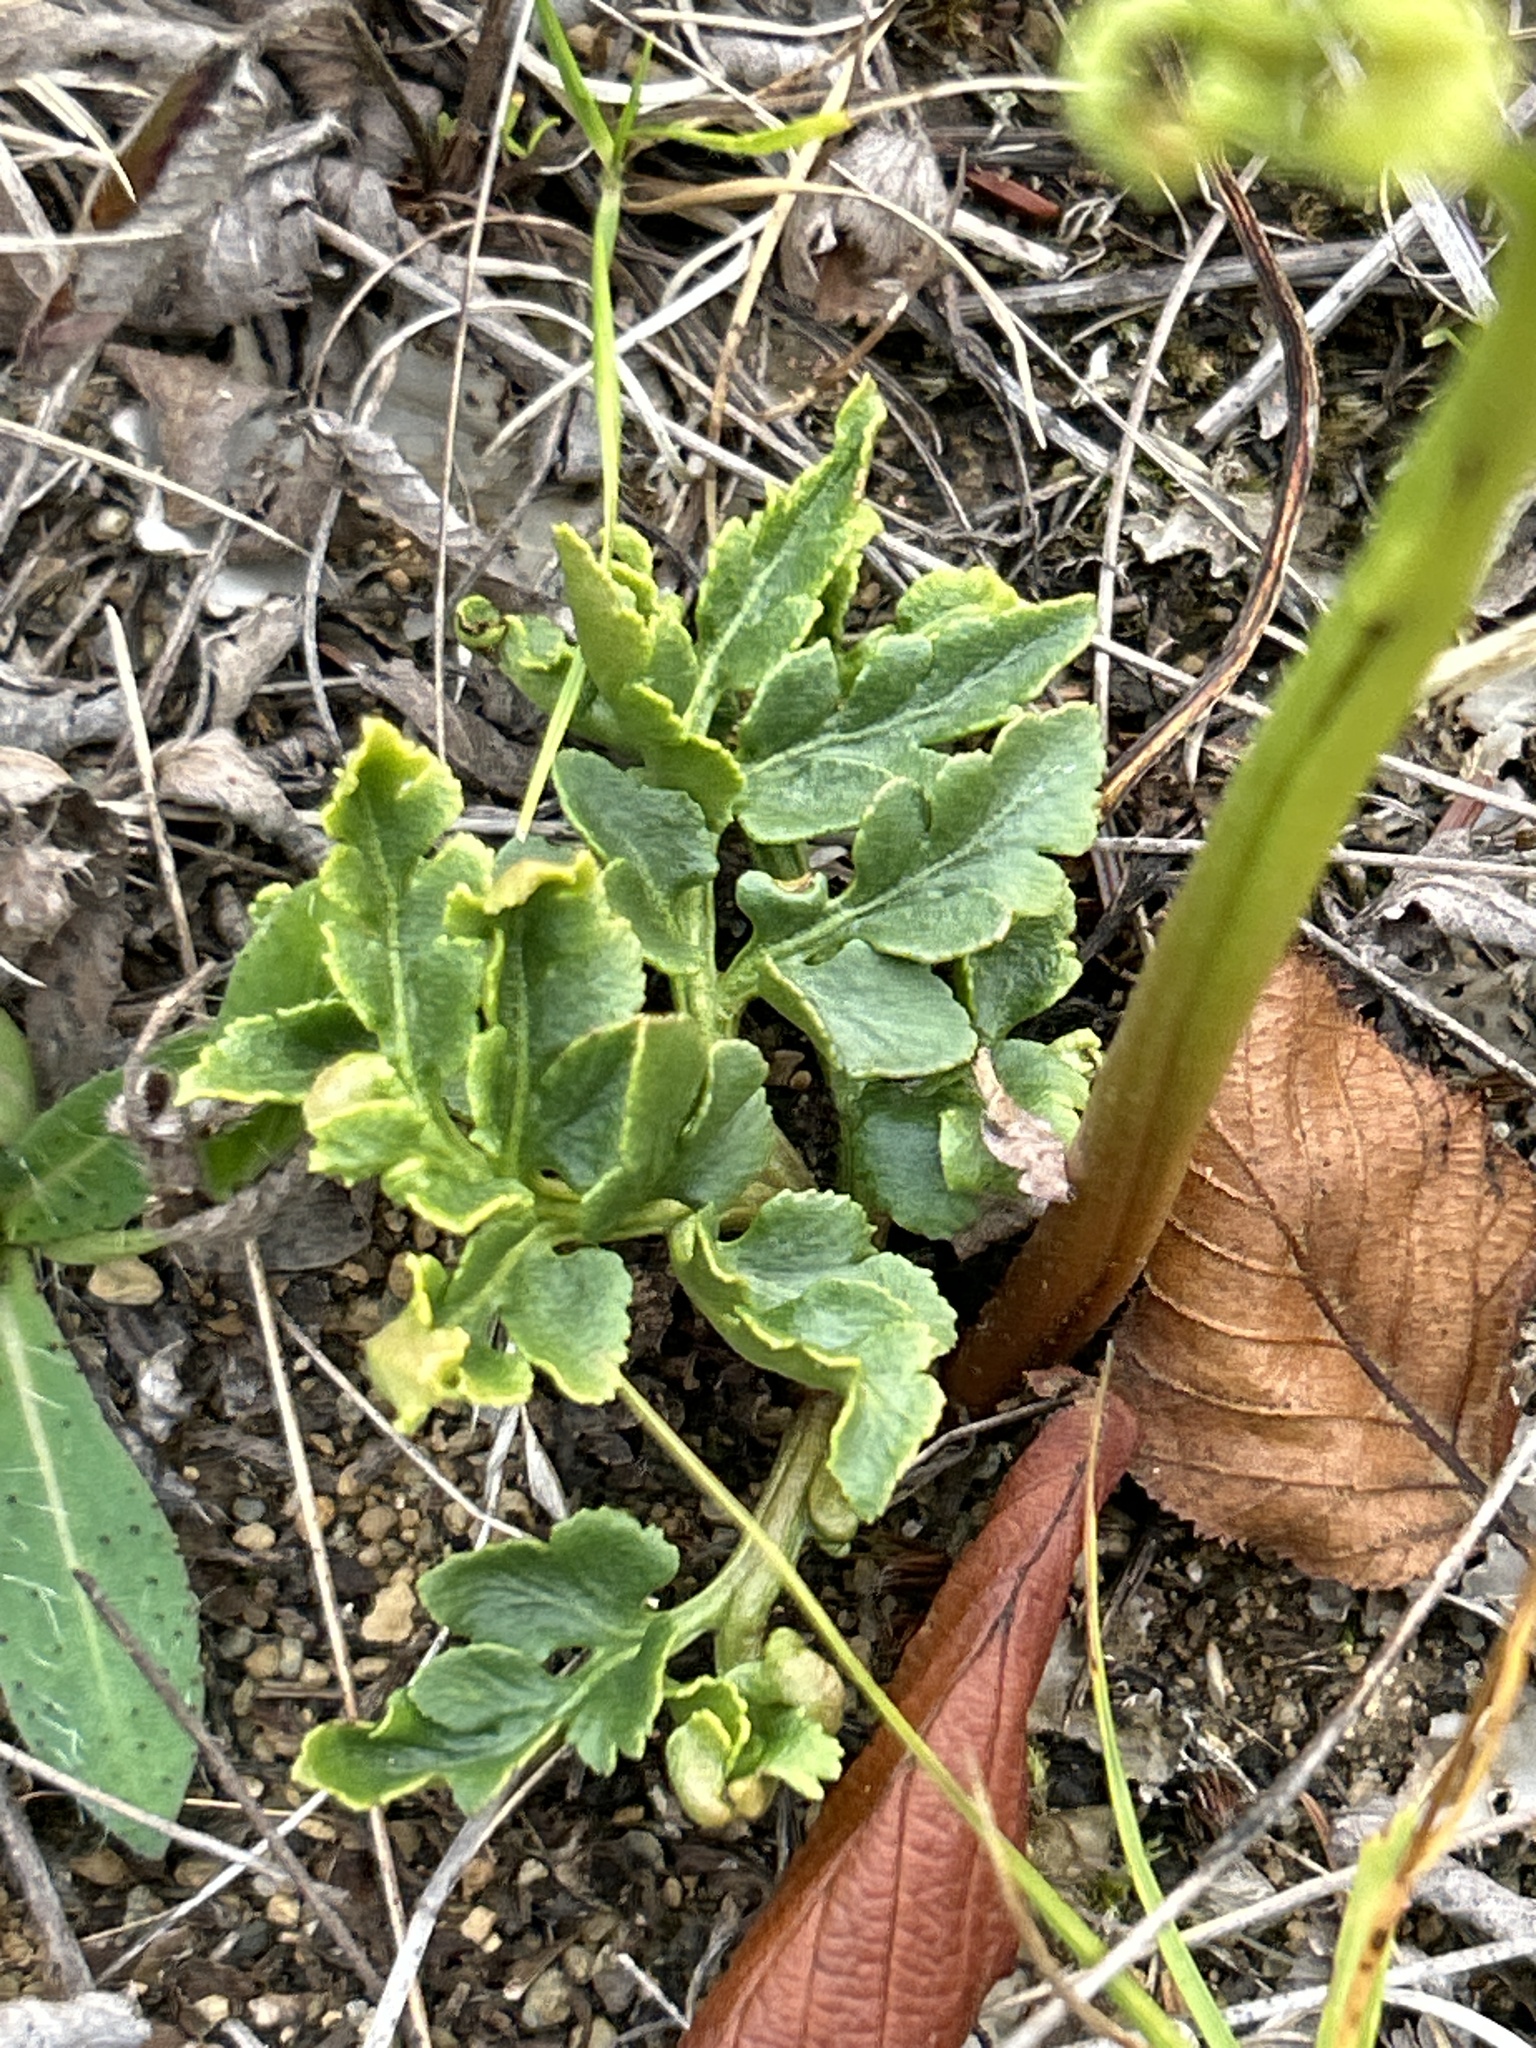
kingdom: Plantae
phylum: Tracheophyta
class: Polypodiopsida
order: Ophioglossales
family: Ophioglossaceae
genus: Sceptridium
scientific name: Sceptridium multifidum
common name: Leathery grape fern
